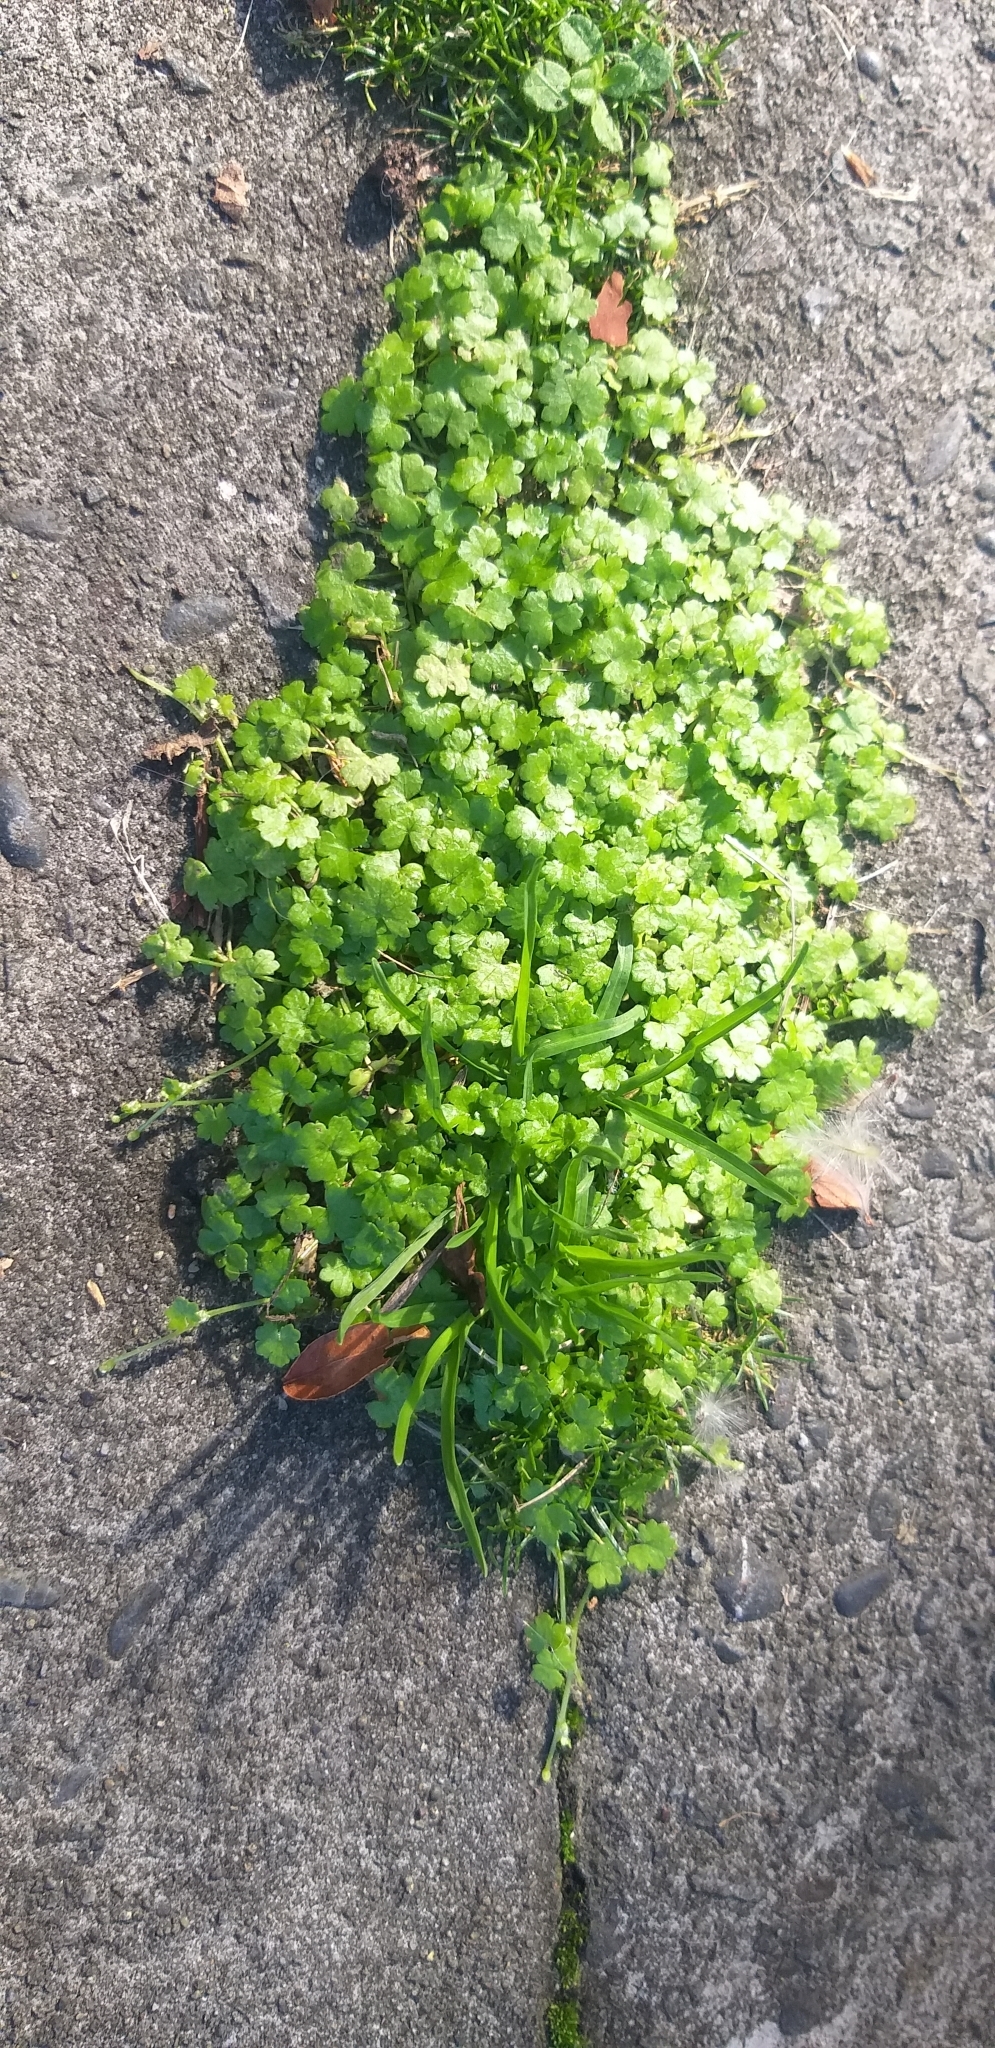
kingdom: Plantae
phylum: Tracheophyta
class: Magnoliopsida
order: Apiales
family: Araliaceae
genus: Hydrocotyle
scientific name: Hydrocotyle heteromeria
